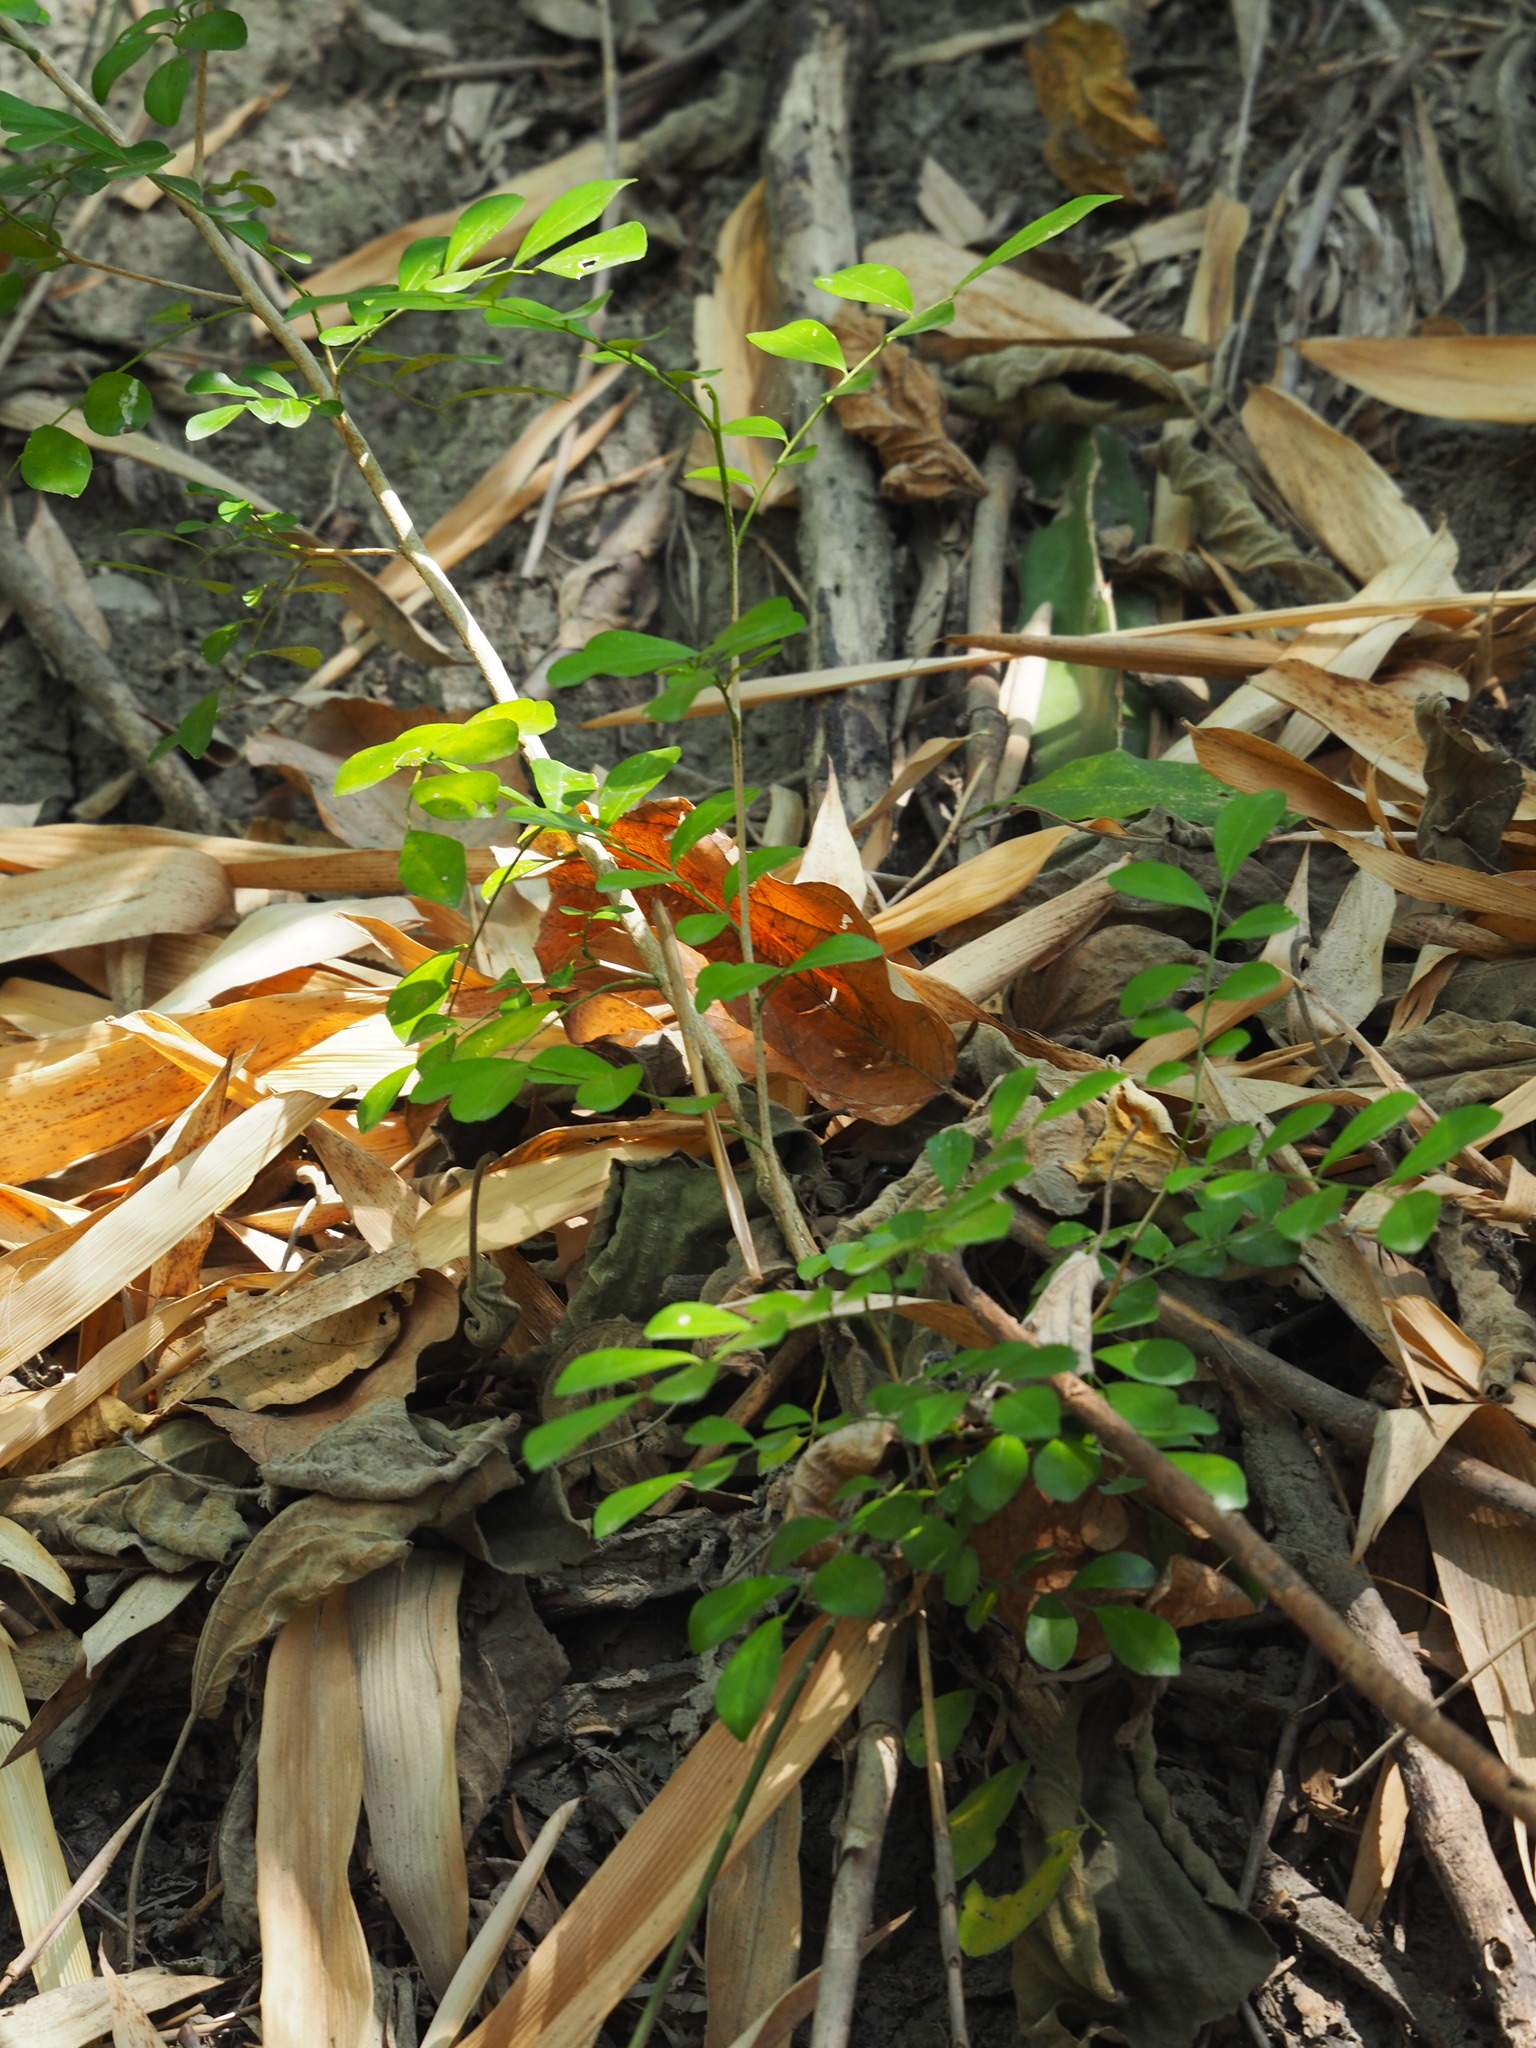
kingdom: Plantae
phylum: Tracheophyta
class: Magnoliopsida
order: Sapindales
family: Rutaceae
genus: Murraya
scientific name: Murraya paniculata
